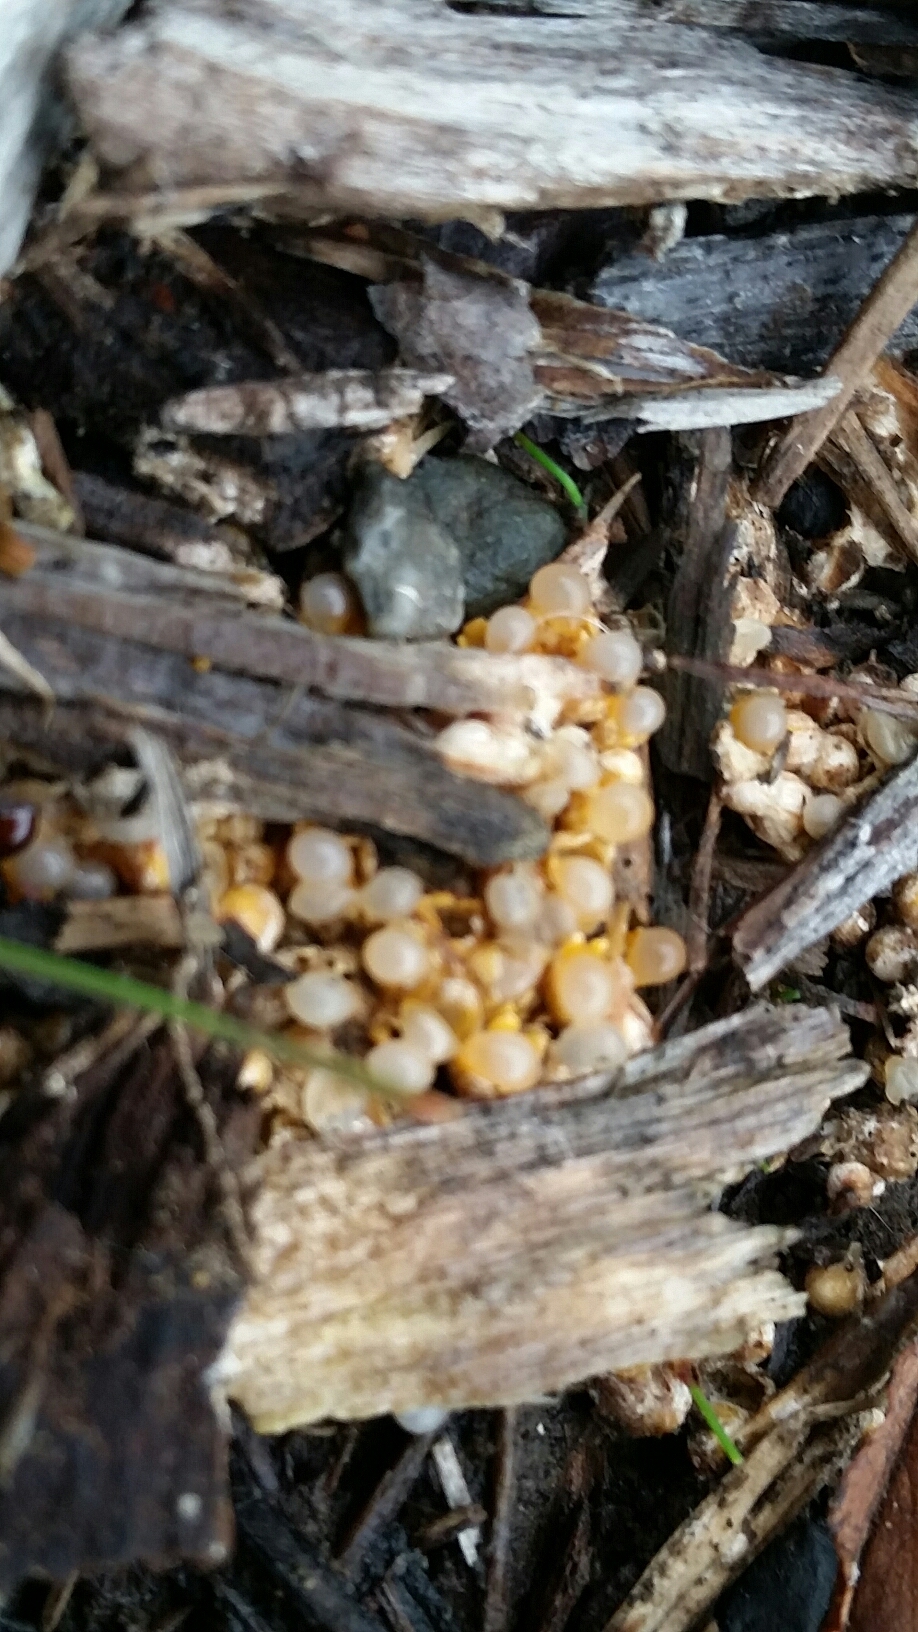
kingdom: Fungi
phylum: Basidiomycota
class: Agaricomycetes
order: Geastrales
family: Geastraceae
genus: Sphaerobolus
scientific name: Sphaerobolus stellatus
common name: Cannon fungus
